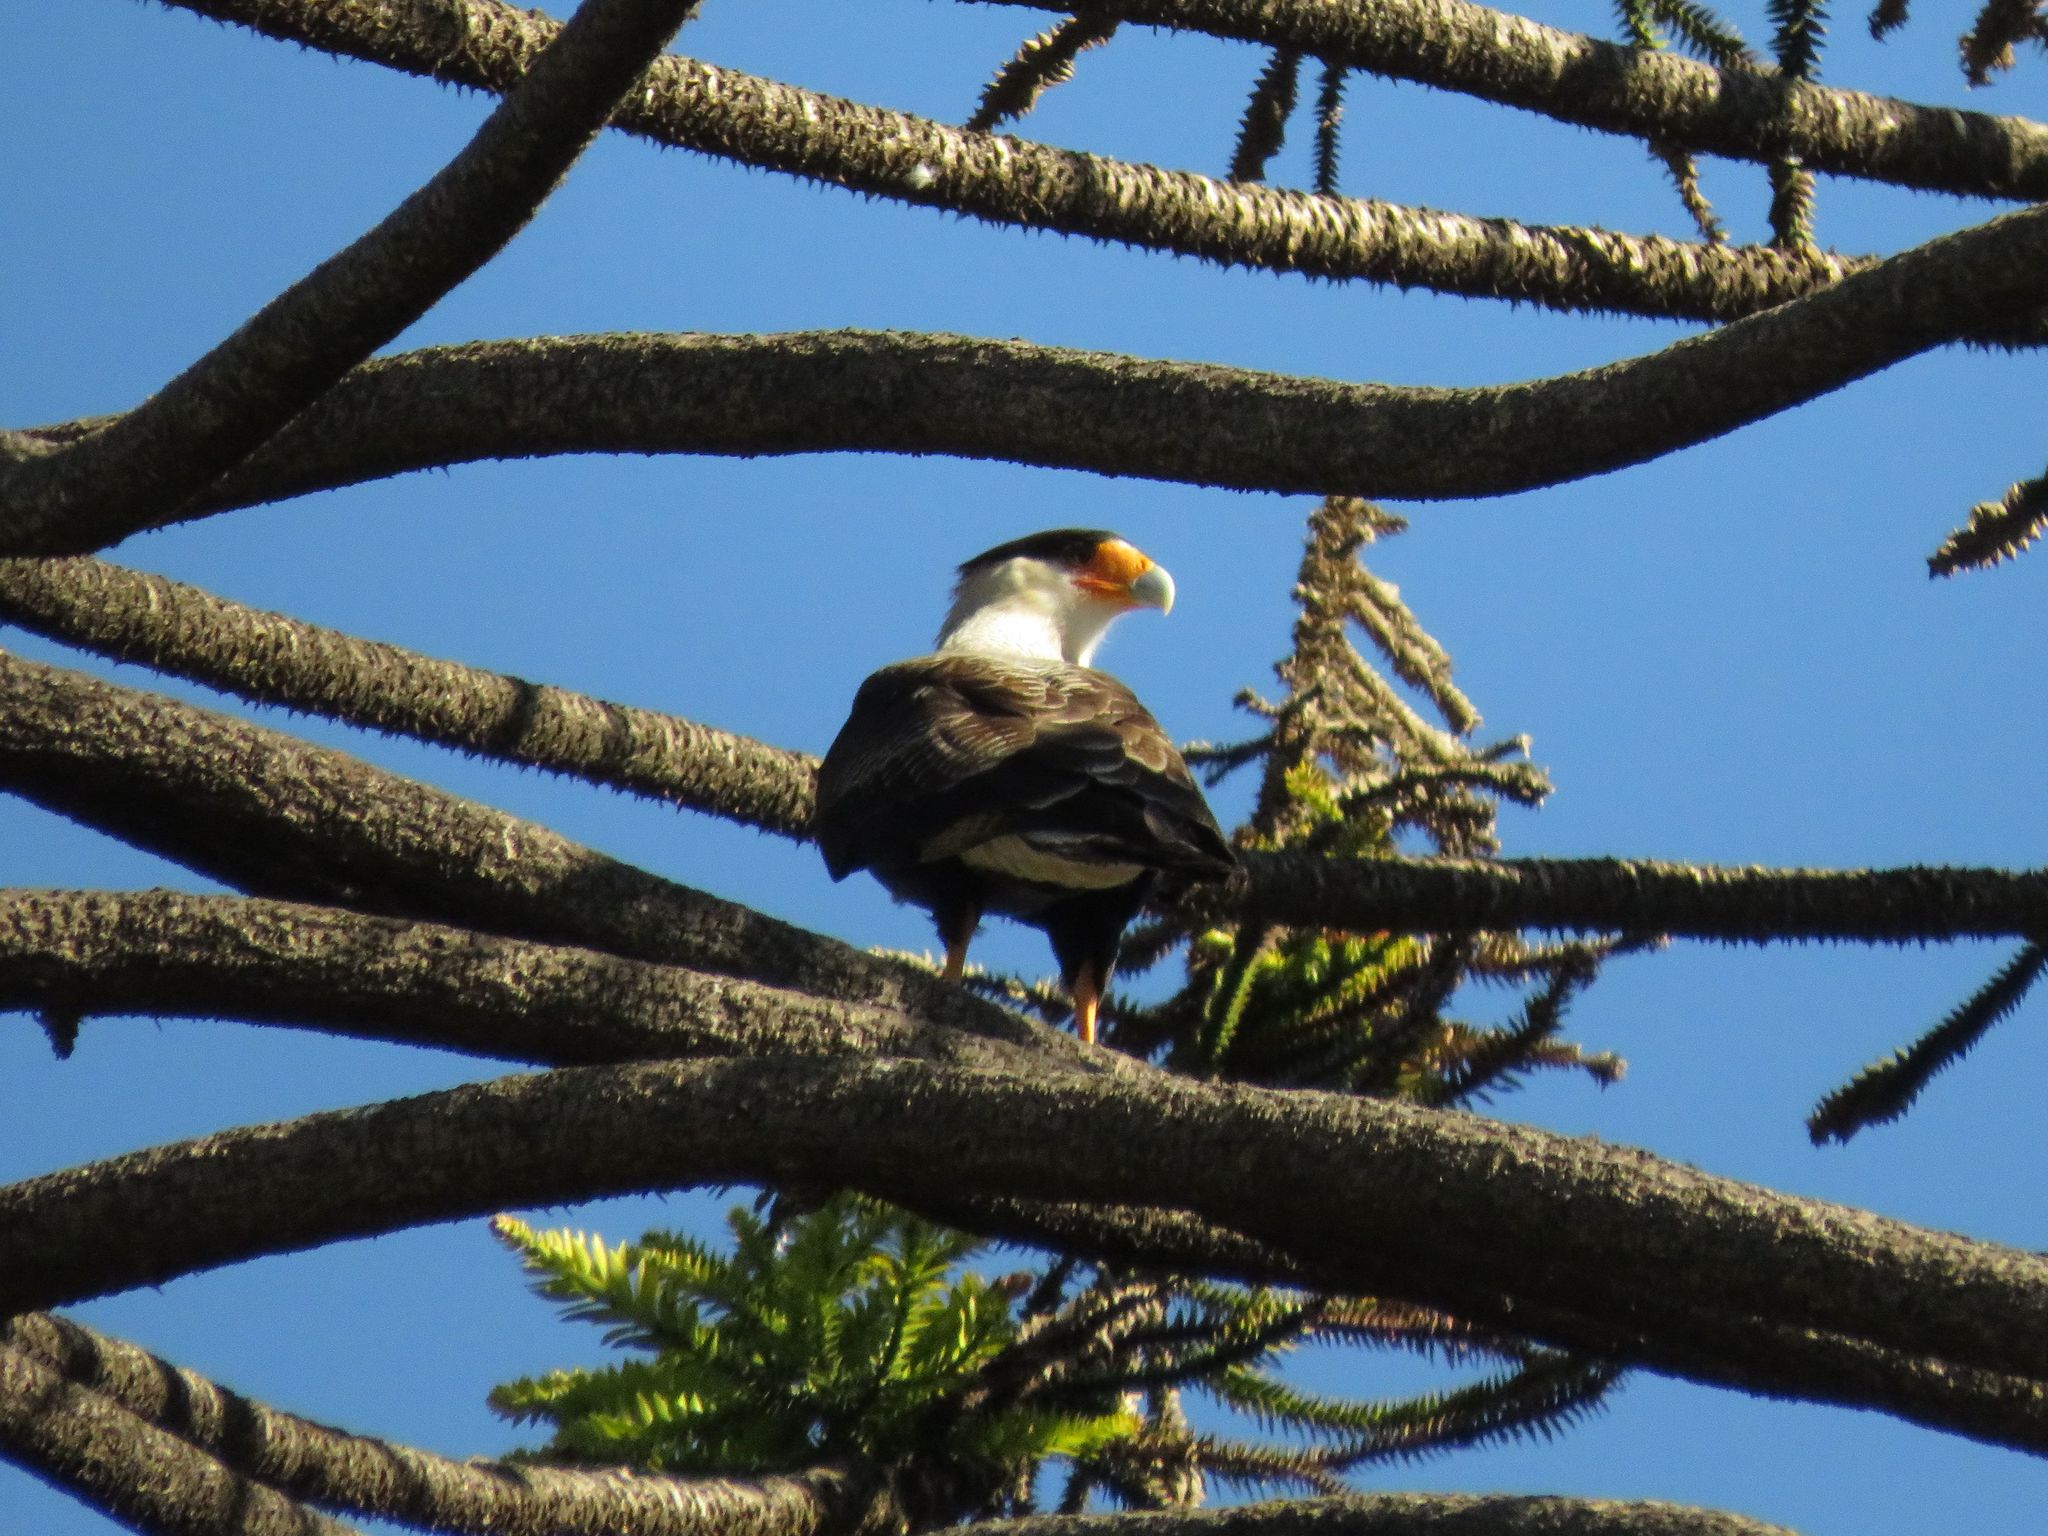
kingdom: Animalia
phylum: Chordata
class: Aves
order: Falconiformes
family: Falconidae
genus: Caracara
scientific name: Caracara plancus
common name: Southern caracara
